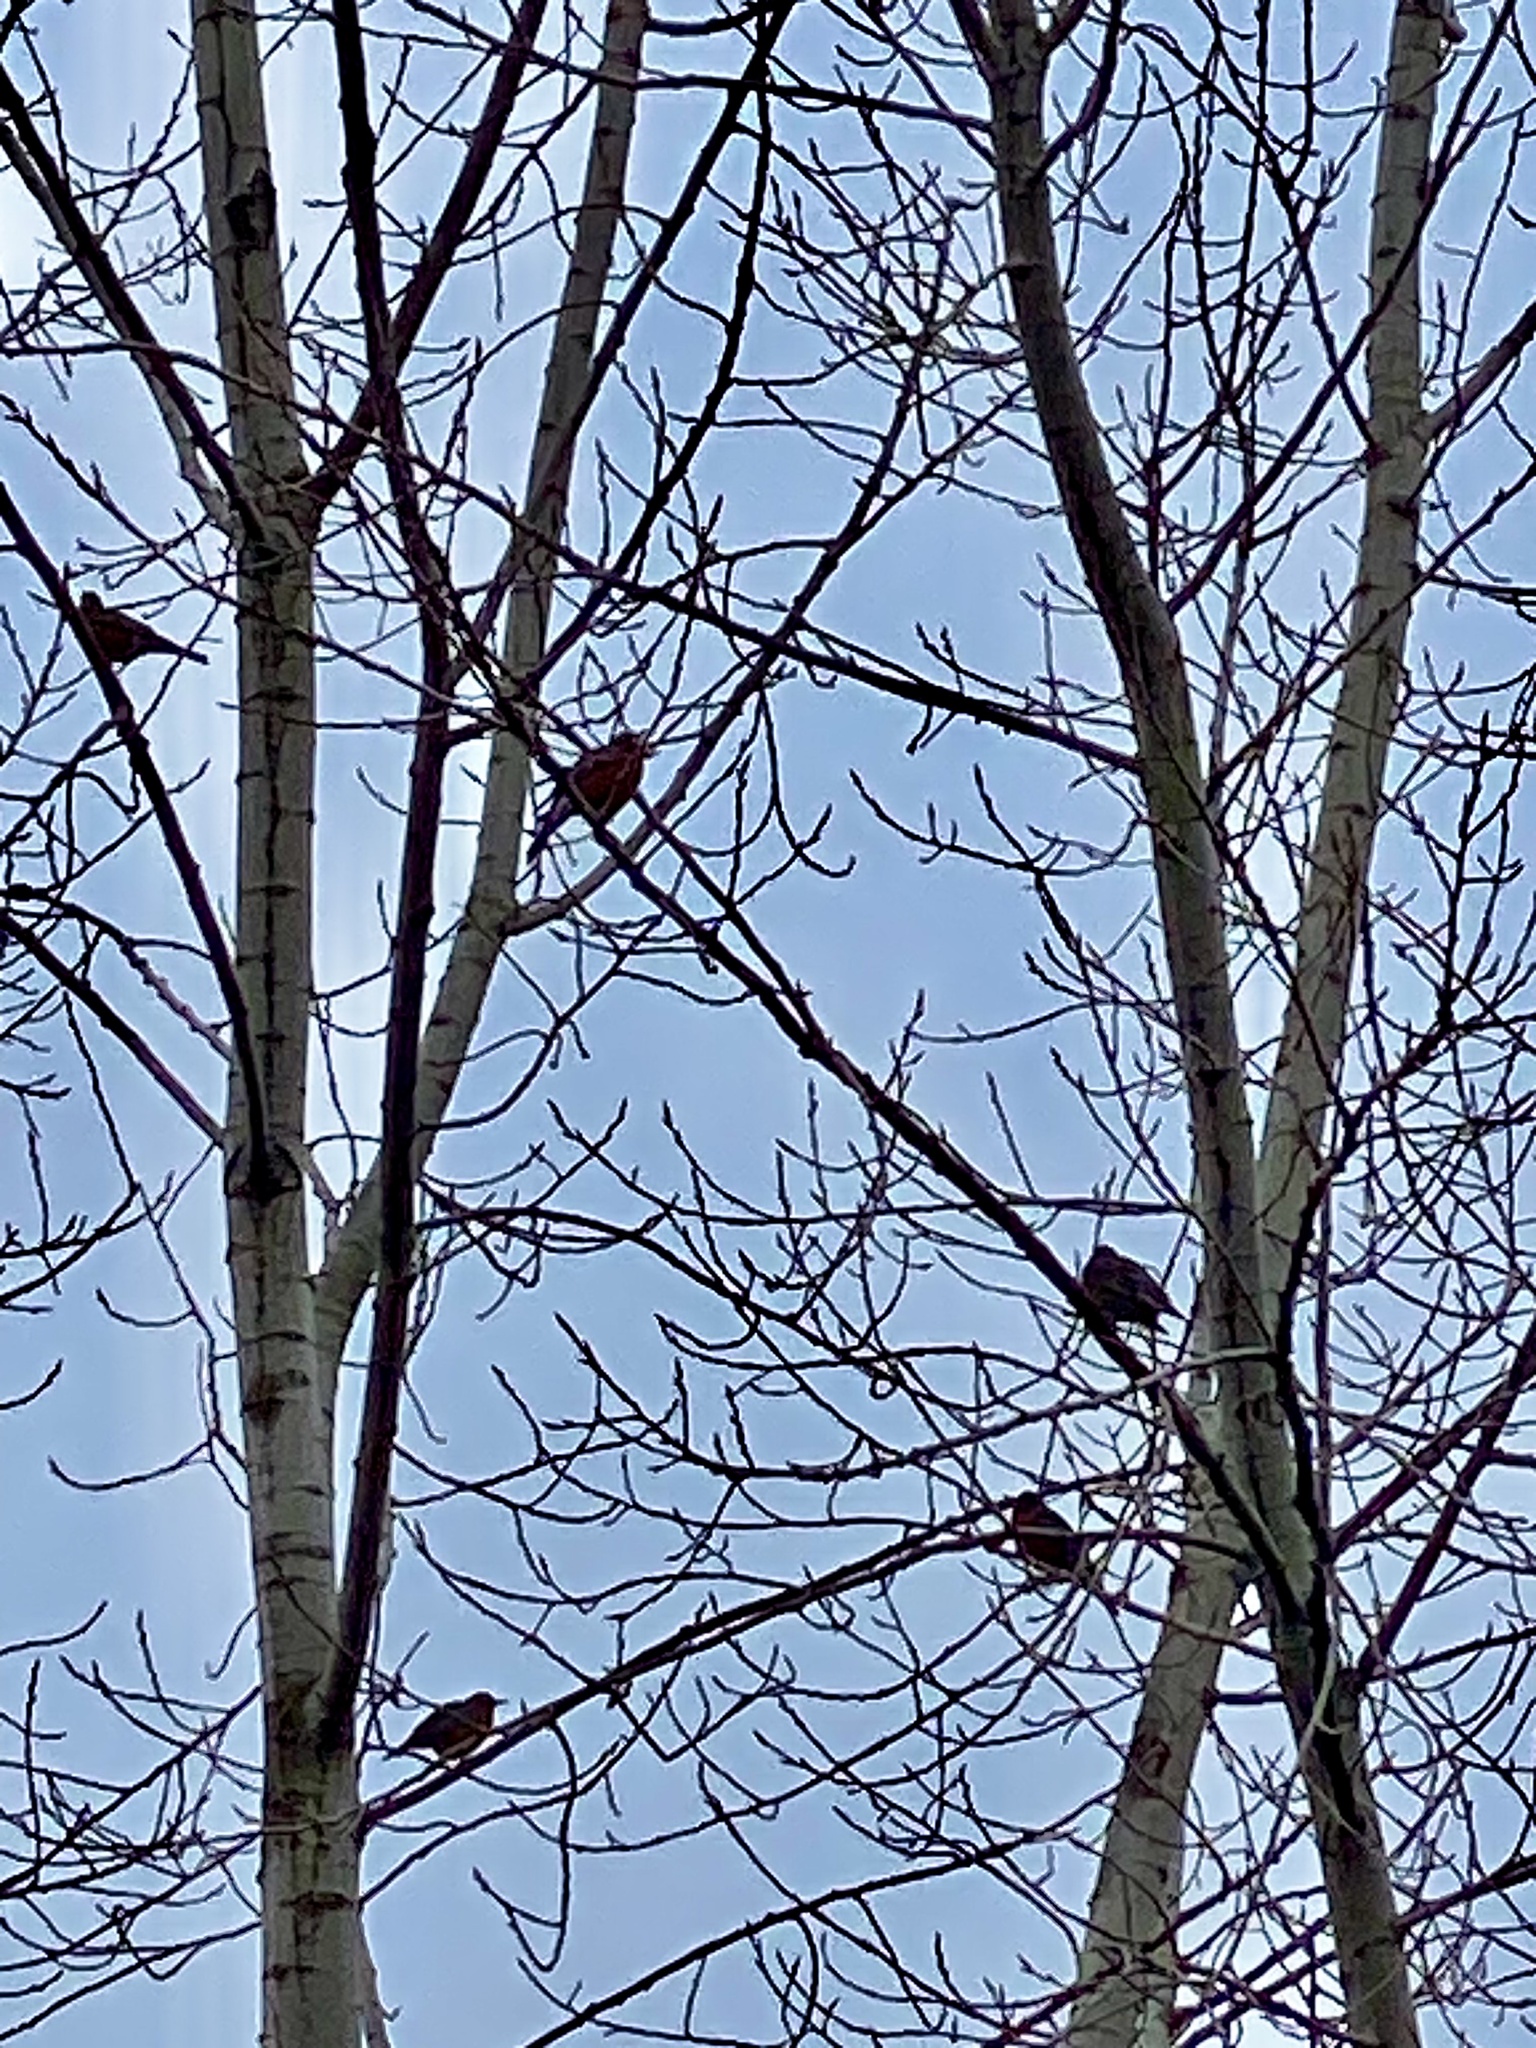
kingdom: Animalia
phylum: Chordata
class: Aves
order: Passeriformes
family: Turdidae
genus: Turdus
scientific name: Turdus migratorius
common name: American robin
